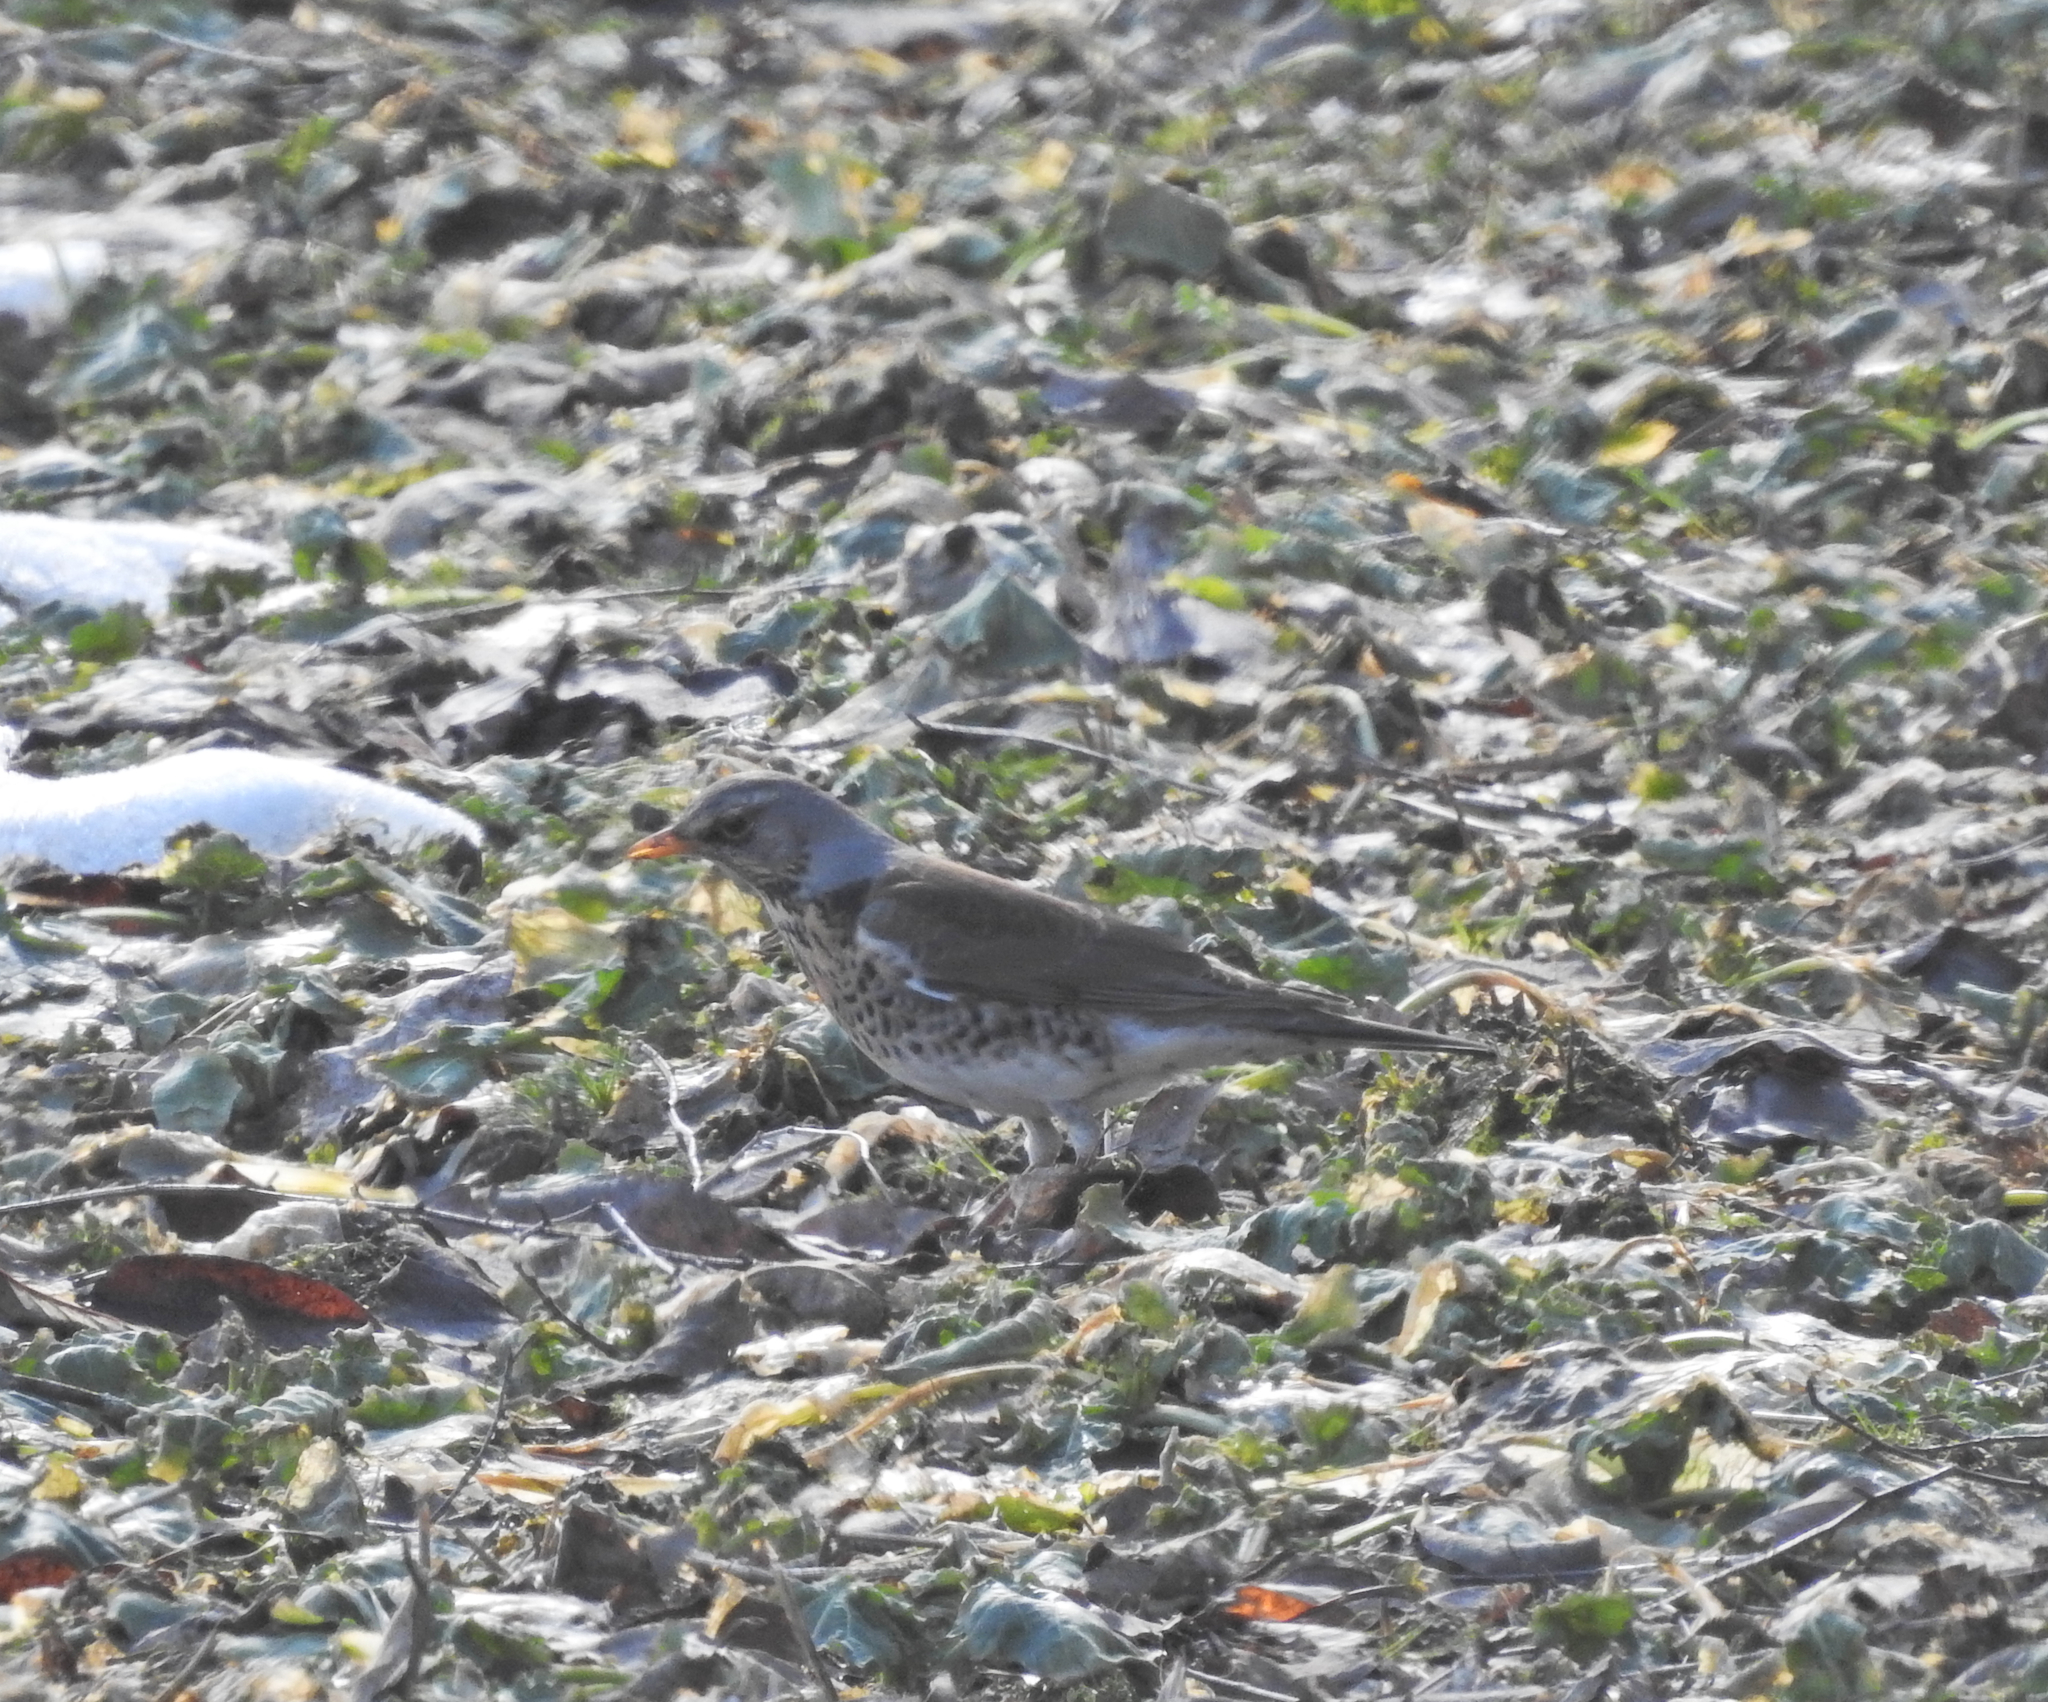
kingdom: Animalia
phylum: Chordata
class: Aves
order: Passeriformes
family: Turdidae
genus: Turdus
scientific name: Turdus pilaris
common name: Fieldfare
